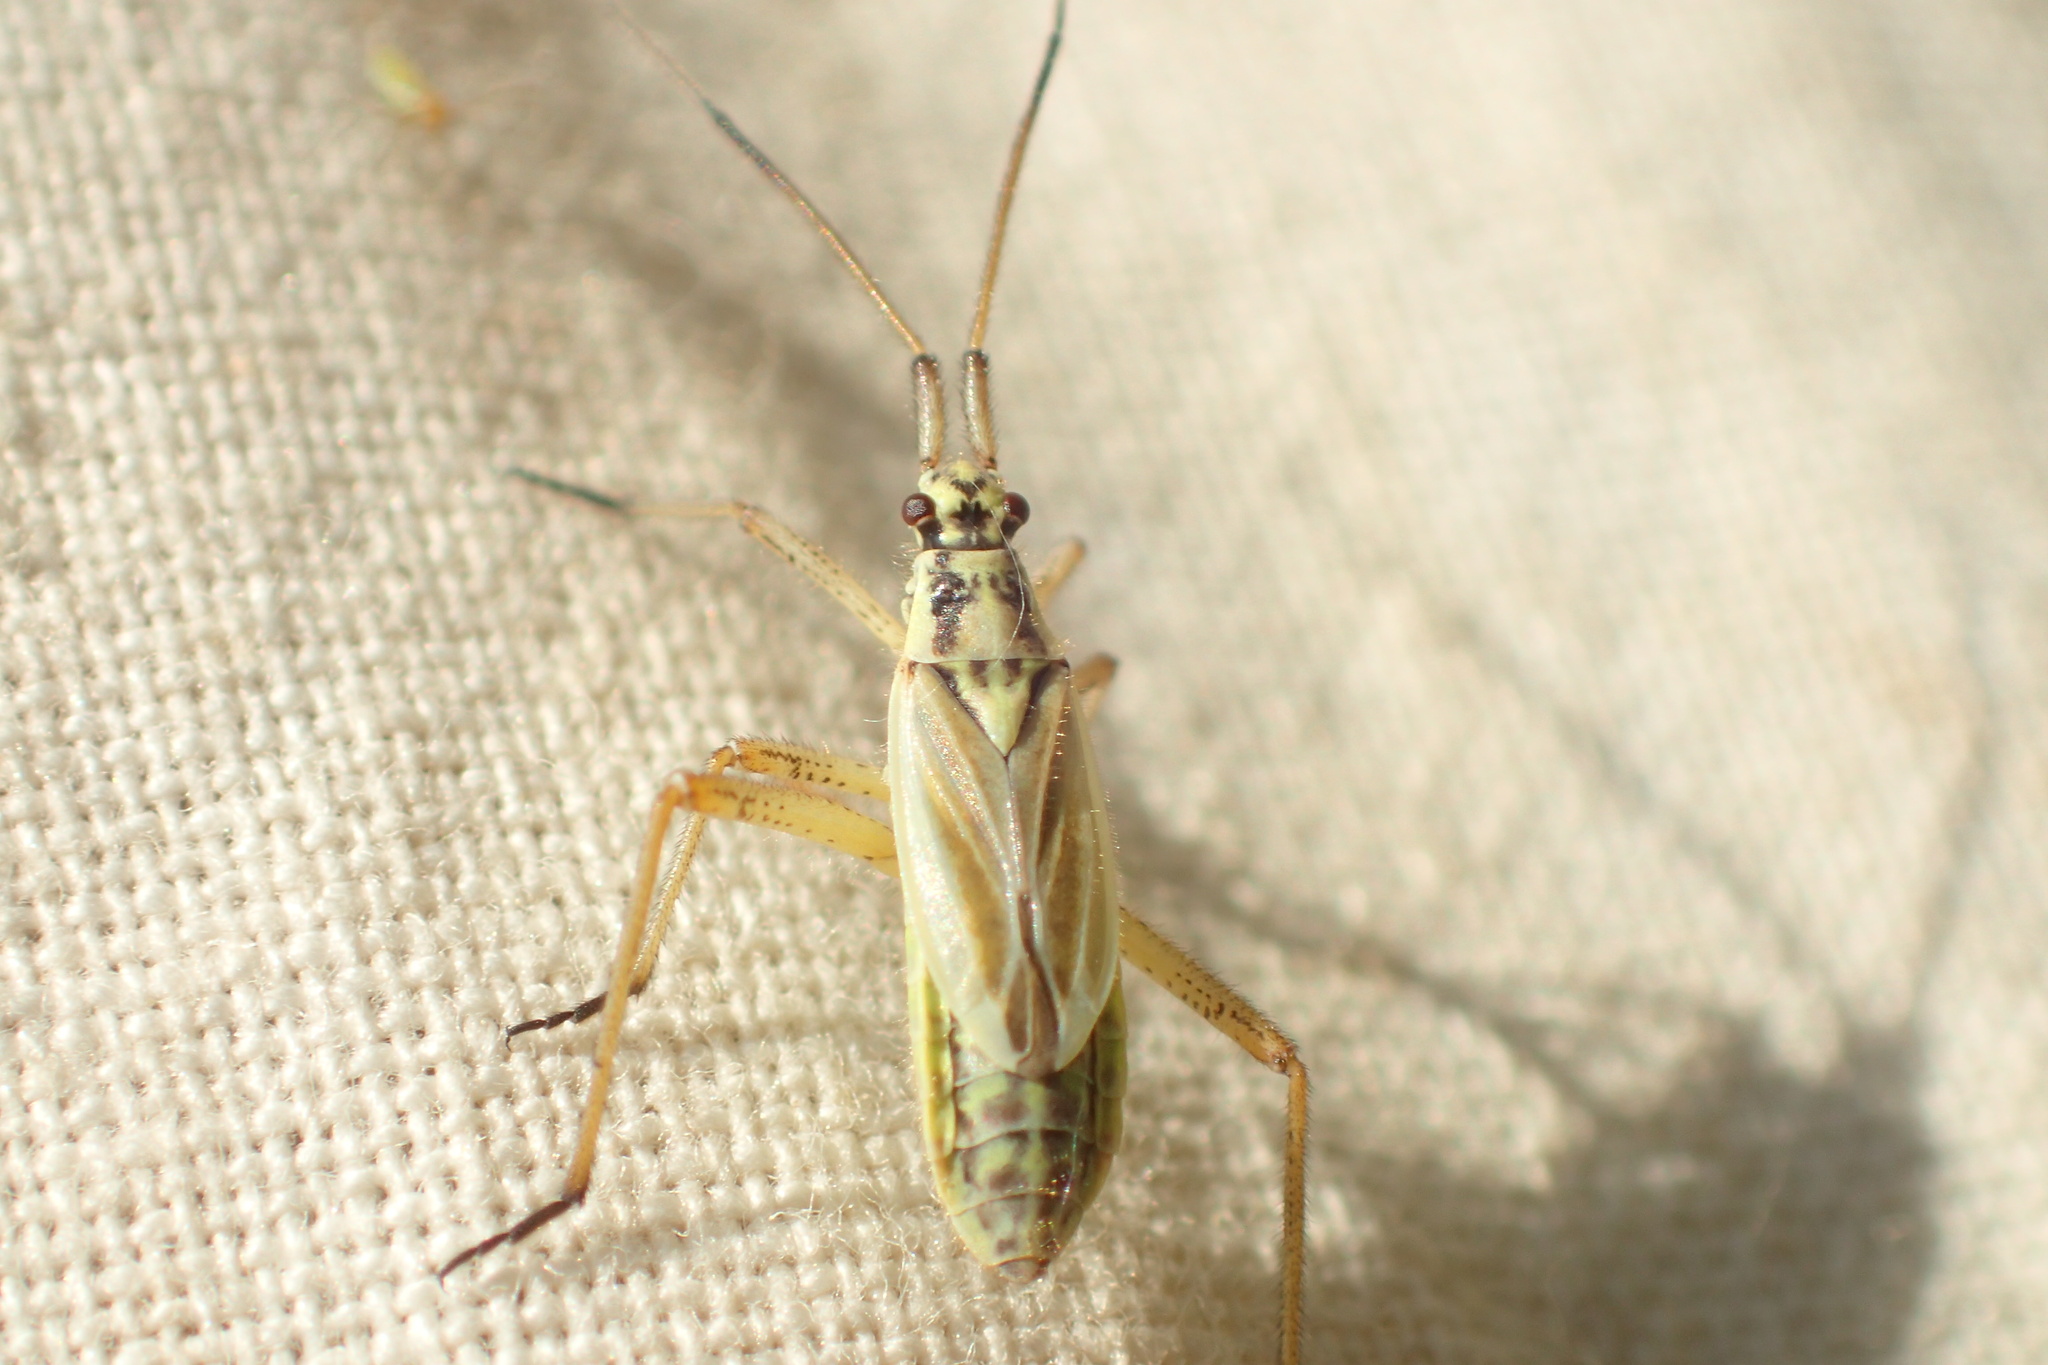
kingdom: Animalia
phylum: Arthropoda
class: Insecta
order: Hemiptera
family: Miridae
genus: Leptopterna
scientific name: Leptopterna dolabrata
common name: Meadow plant bug
